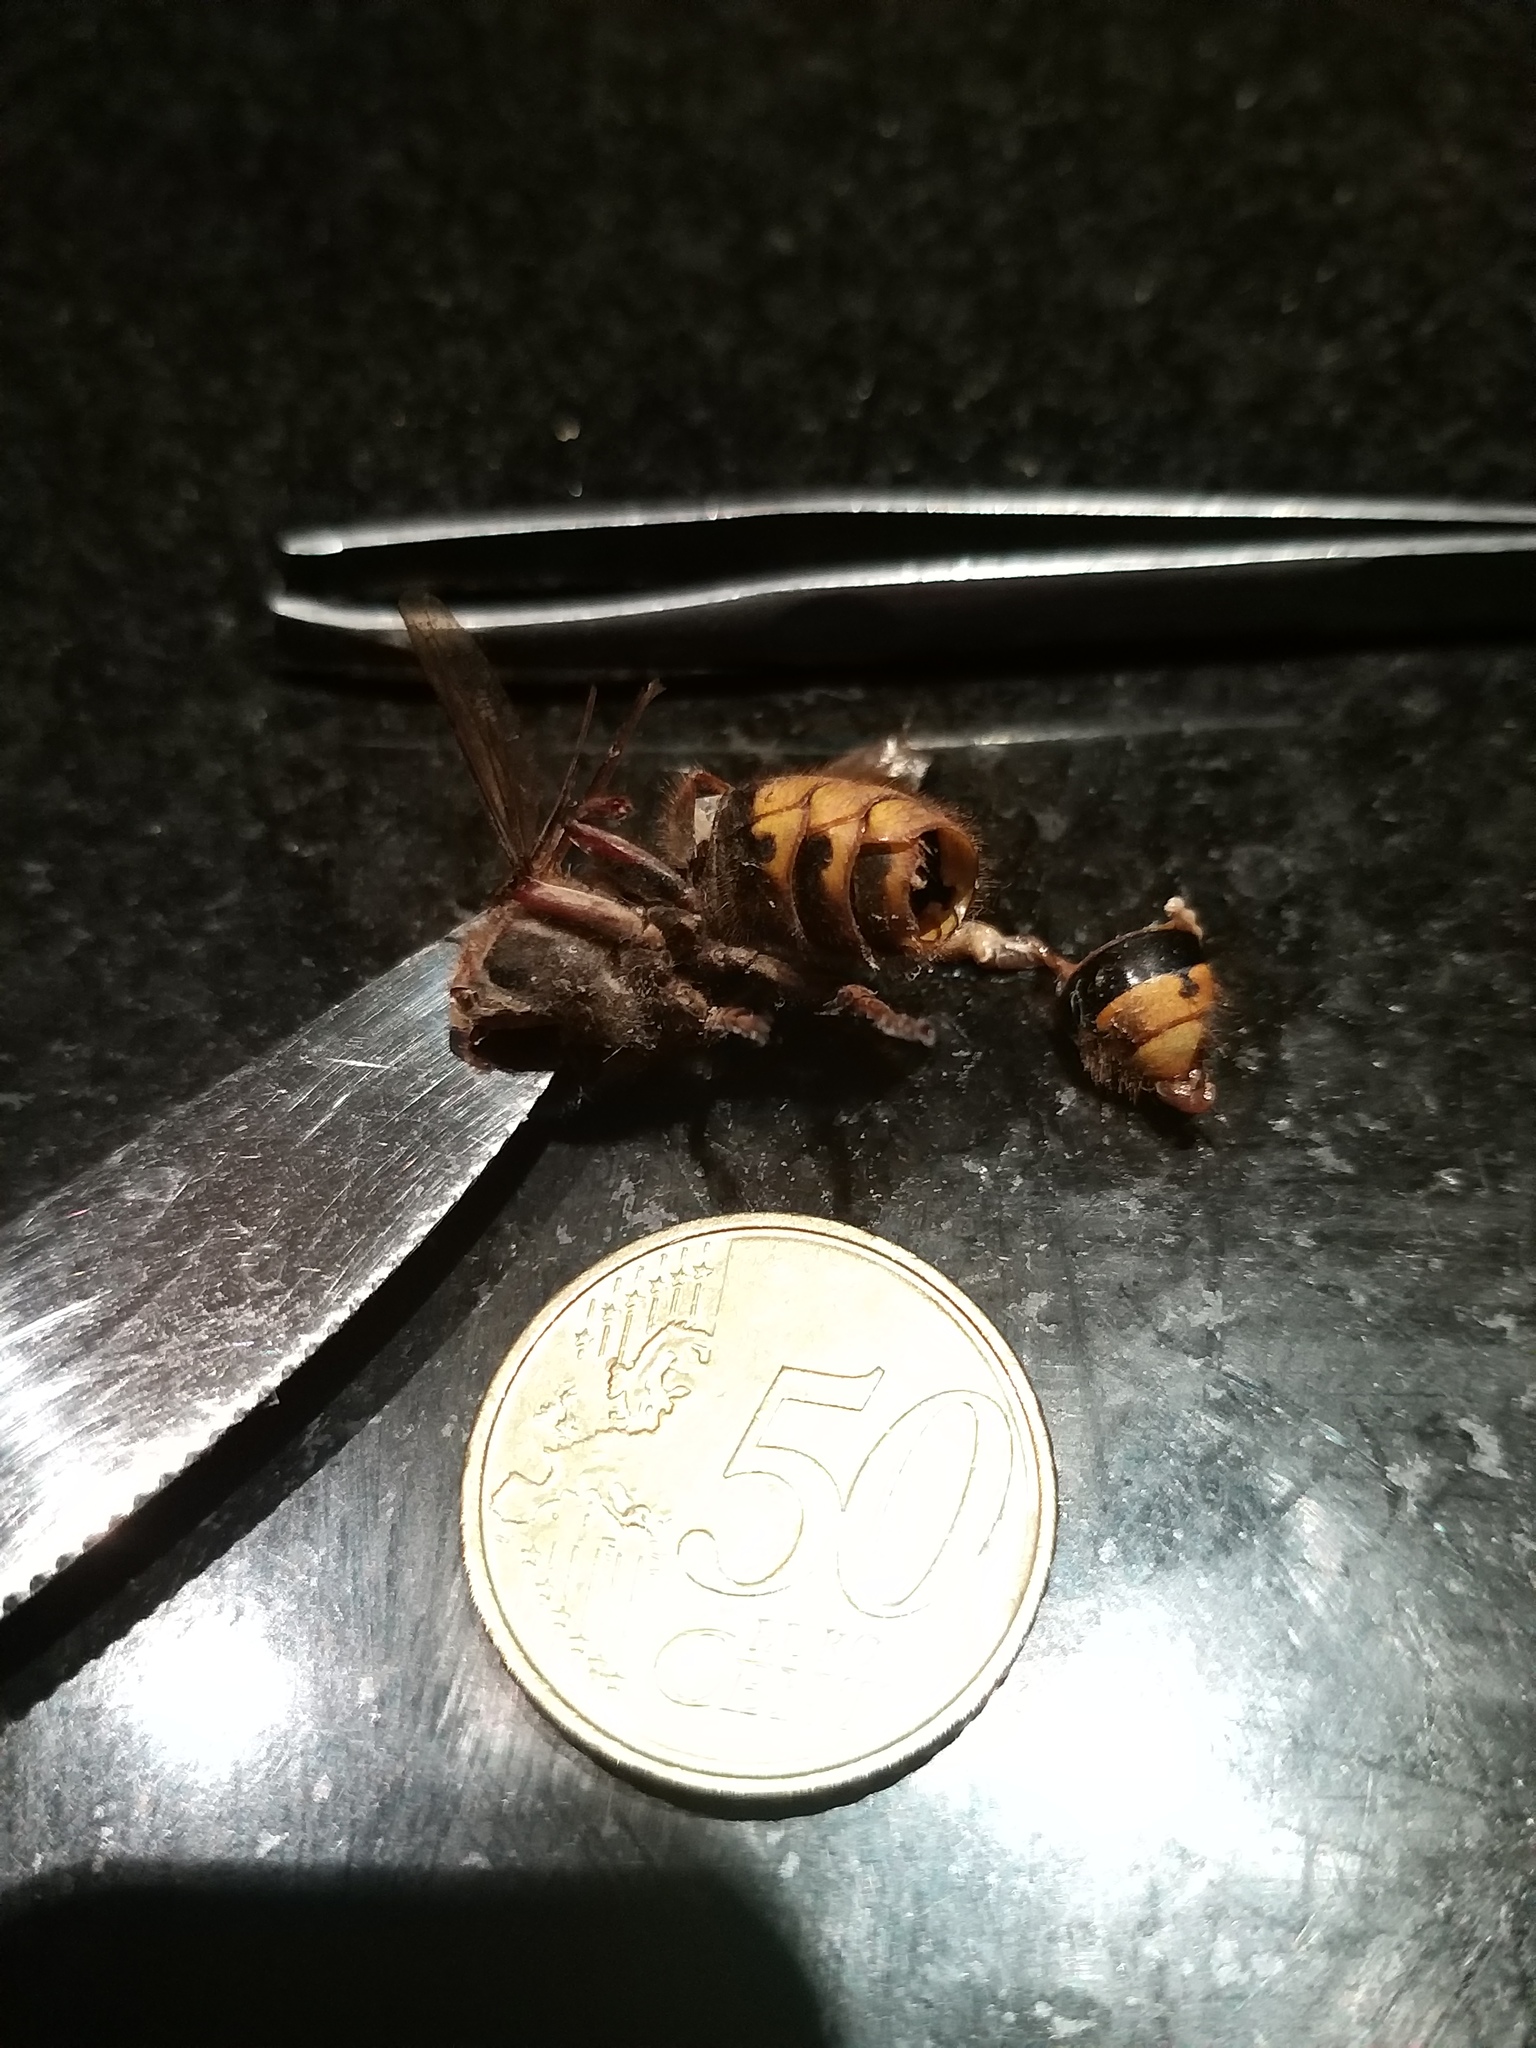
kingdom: Animalia
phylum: Arthropoda
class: Insecta
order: Hymenoptera
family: Vespidae
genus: Vespa
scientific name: Vespa crabro
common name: Hornet
